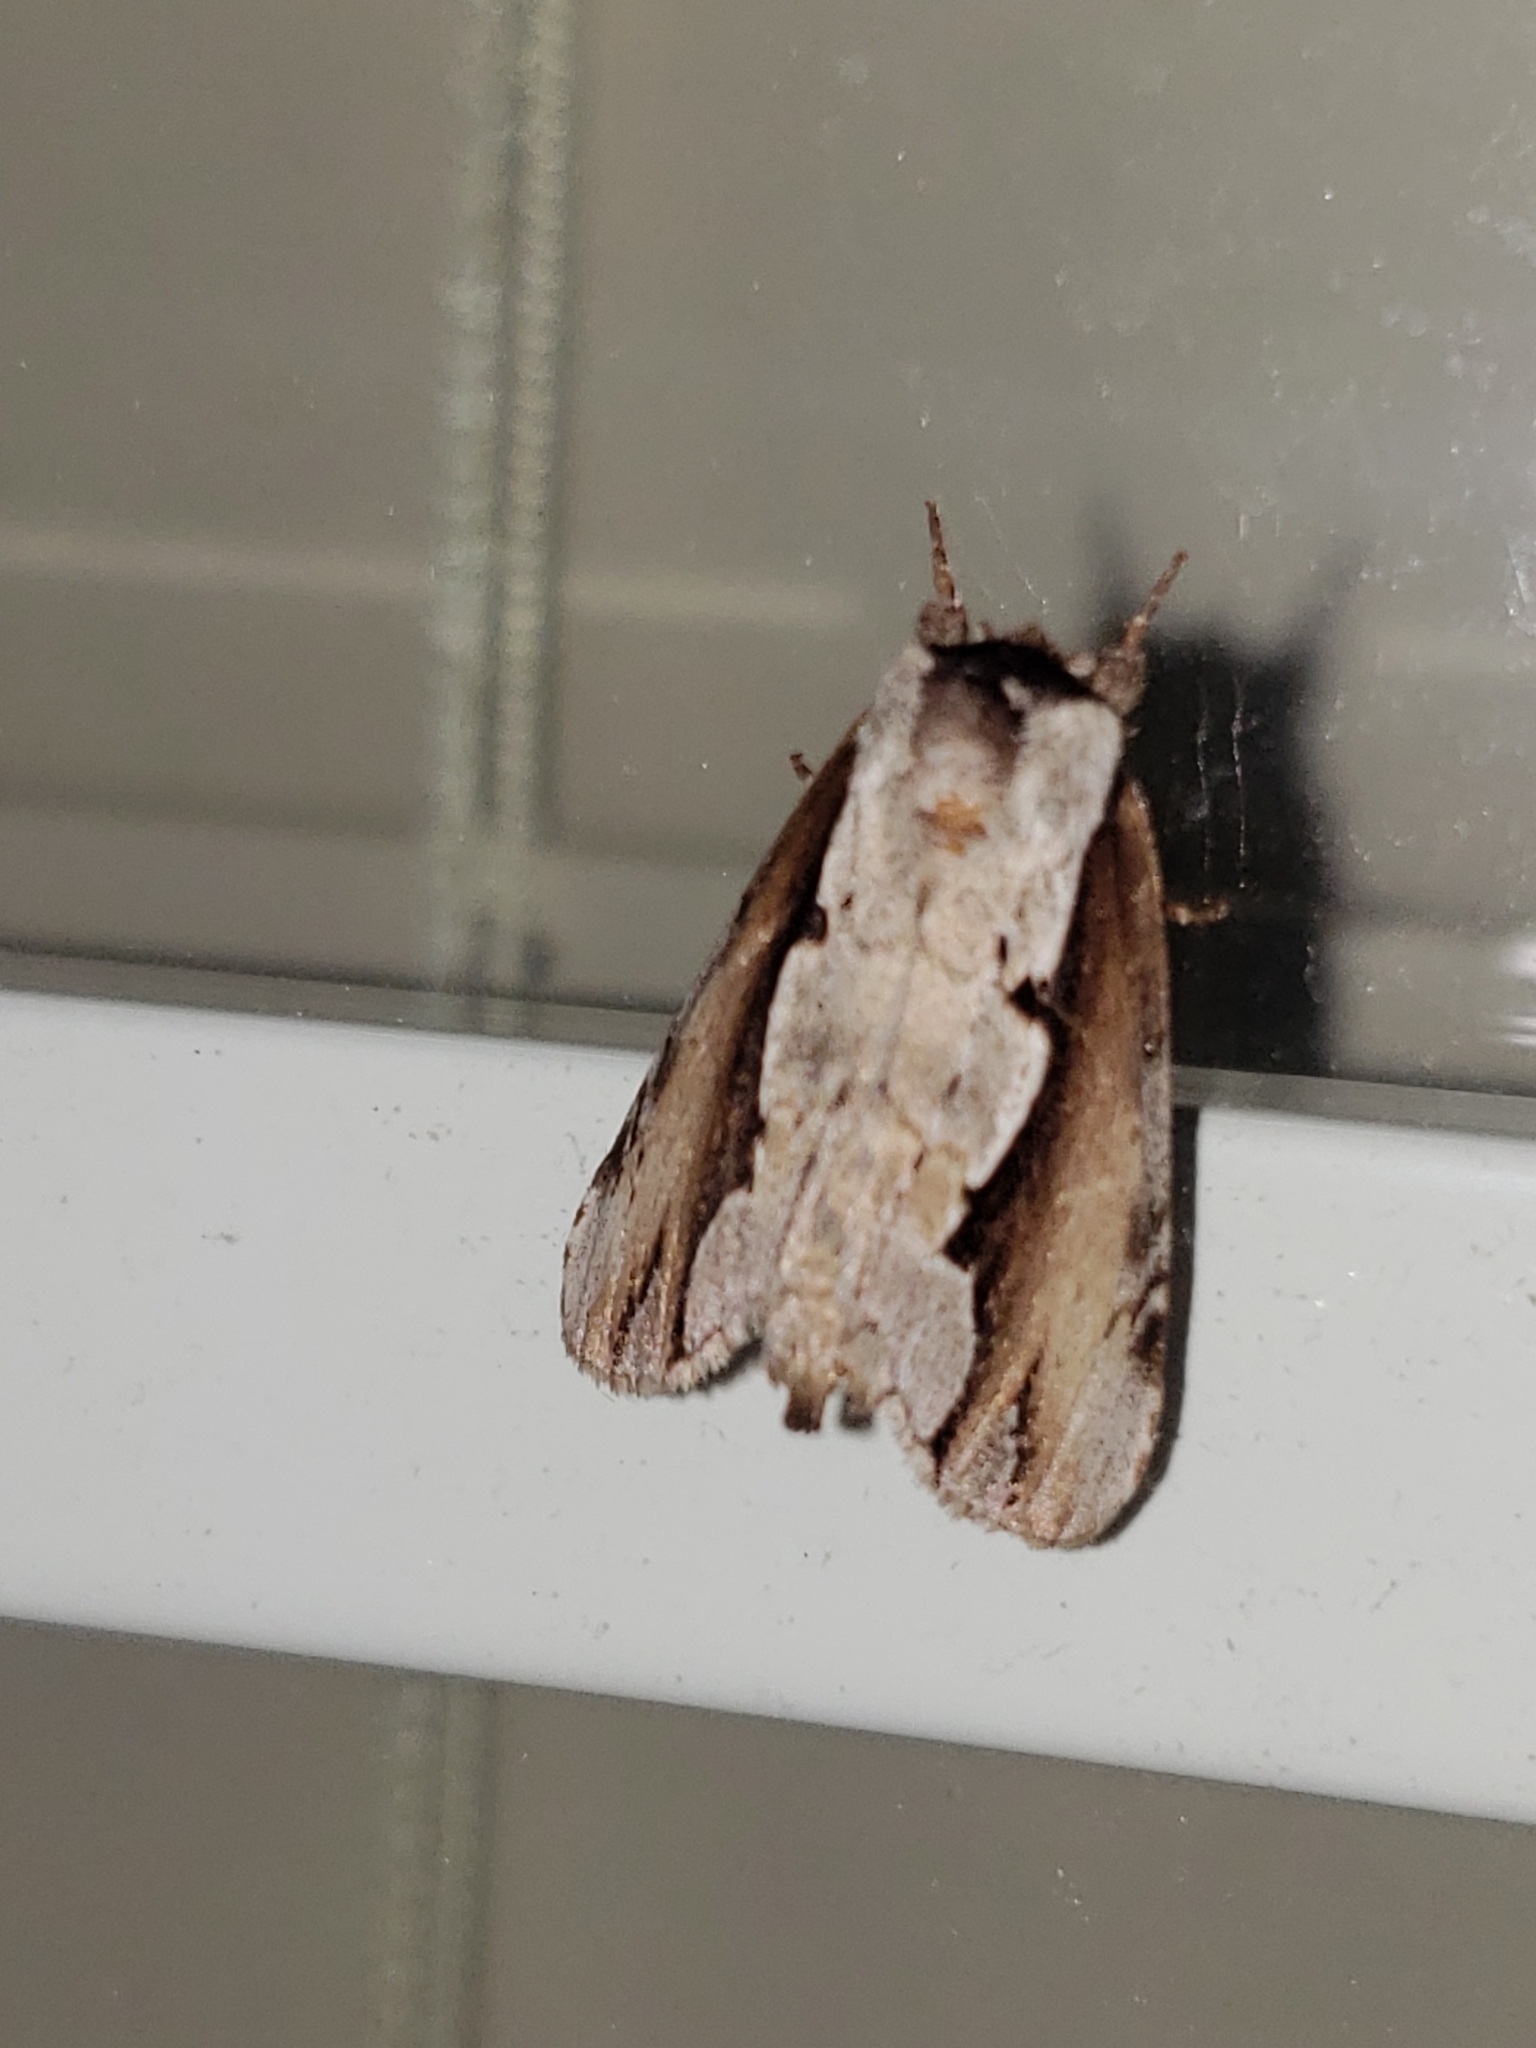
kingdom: Animalia
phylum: Arthropoda
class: Insecta
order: Lepidoptera
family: Notodontidae
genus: Nerice
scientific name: Nerice bidentata
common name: Double-toothed prominent
